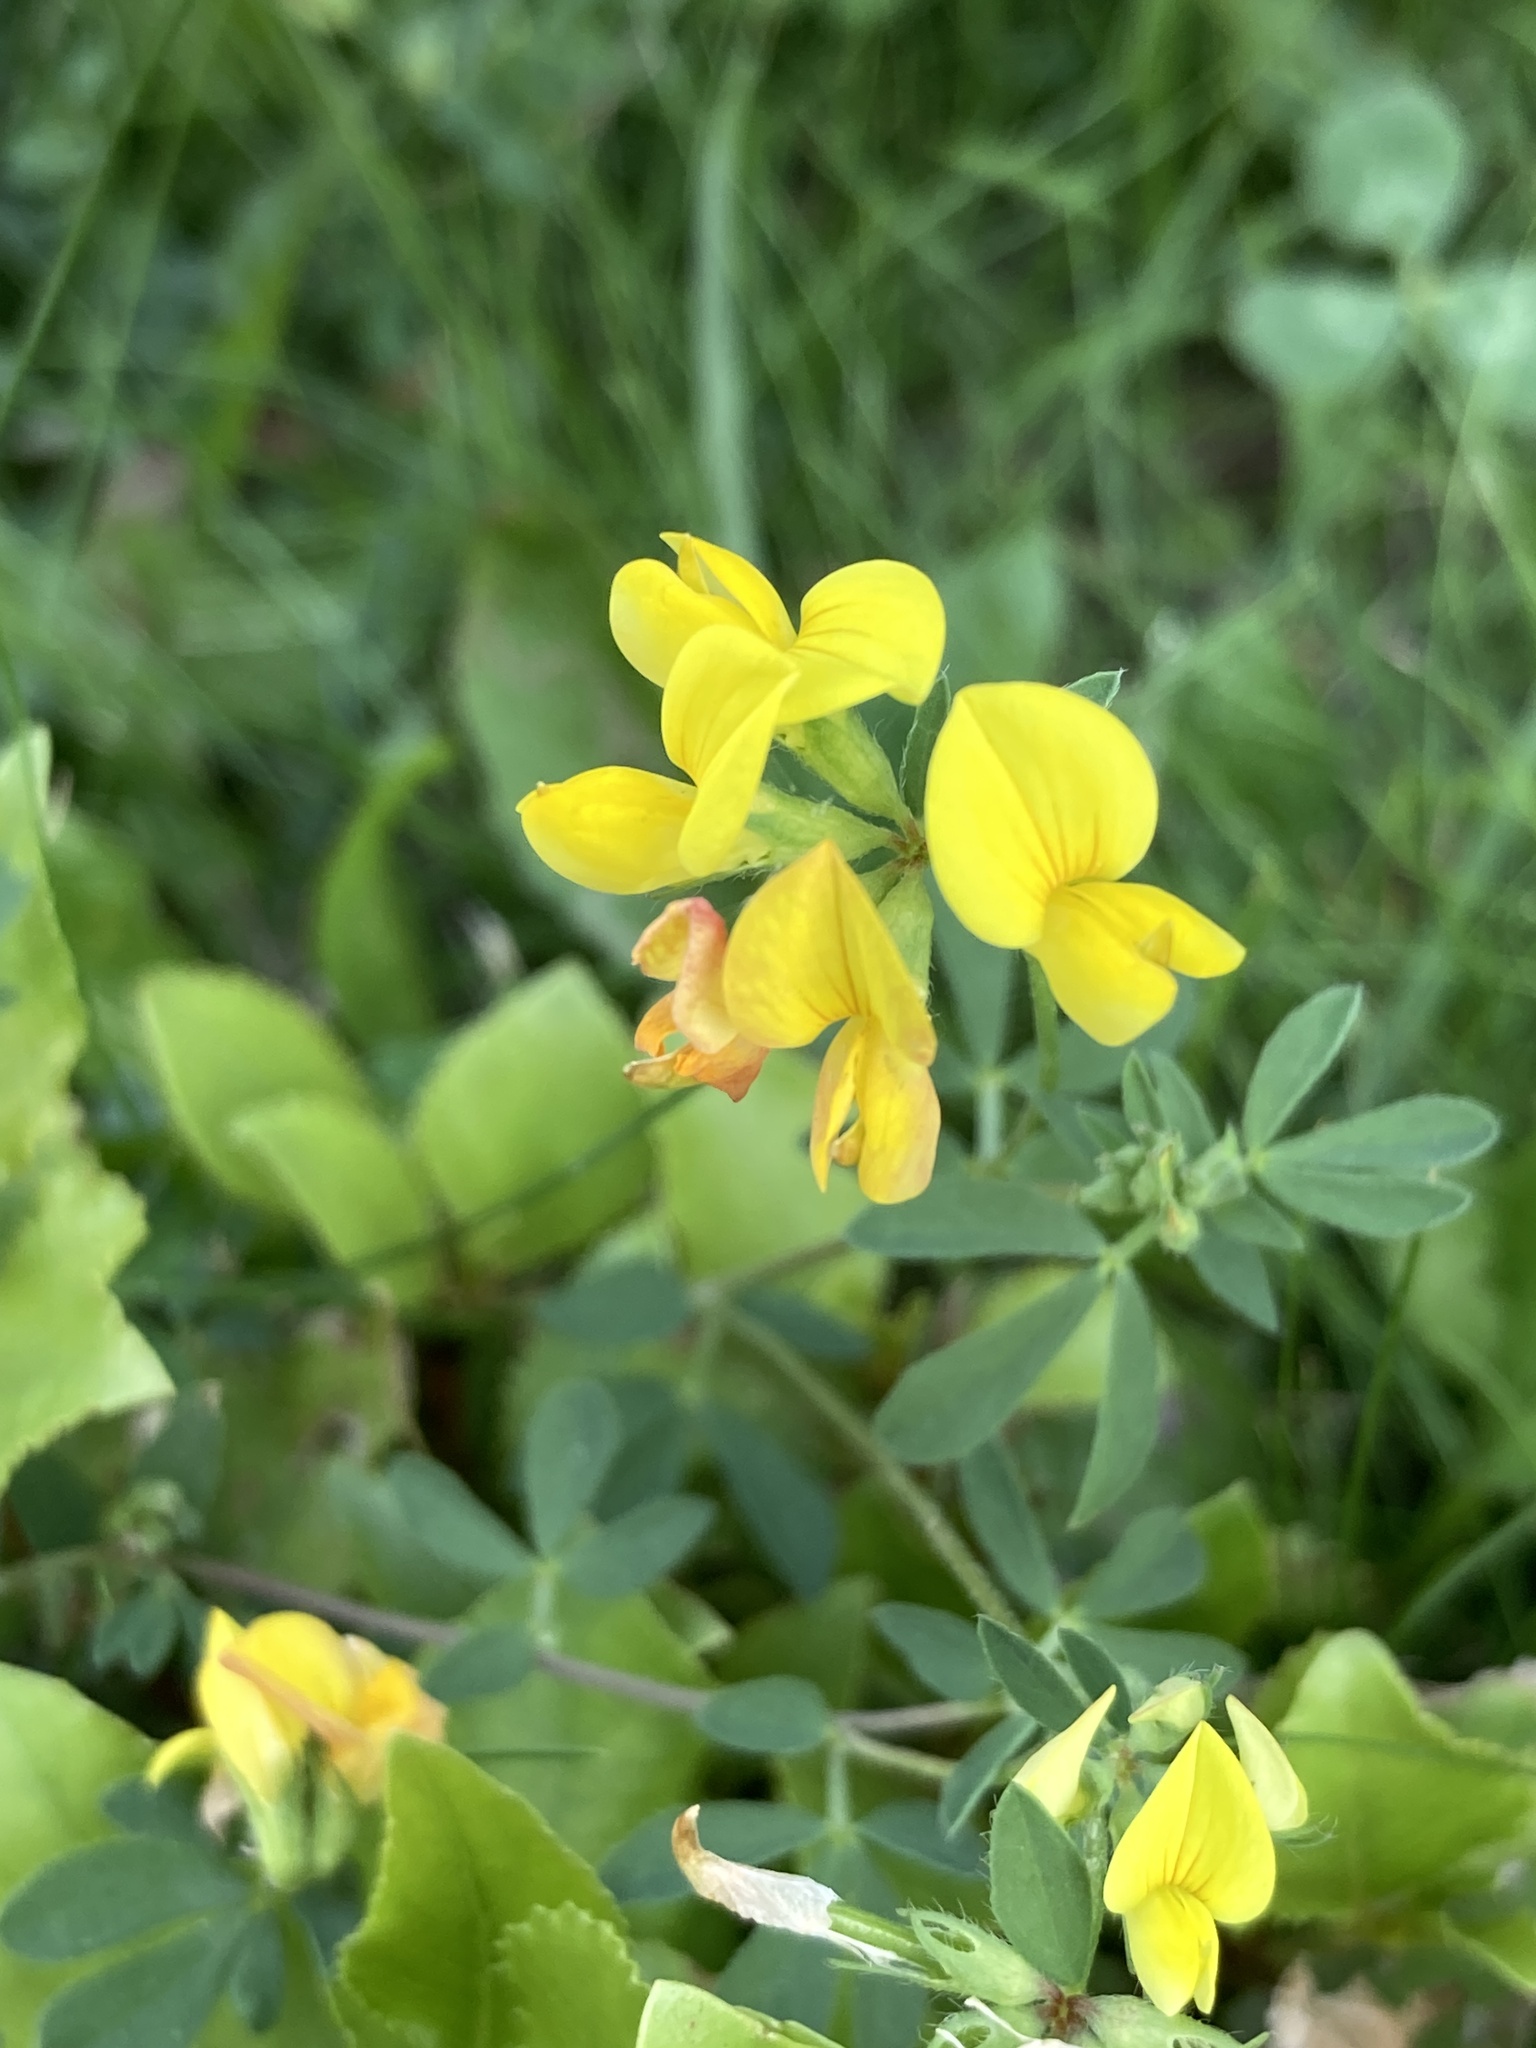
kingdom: Plantae
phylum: Tracheophyta
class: Magnoliopsida
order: Fabales
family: Fabaceae
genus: Lotus
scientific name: Lotus corniculatus
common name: Common bird's-foot-trefoil
